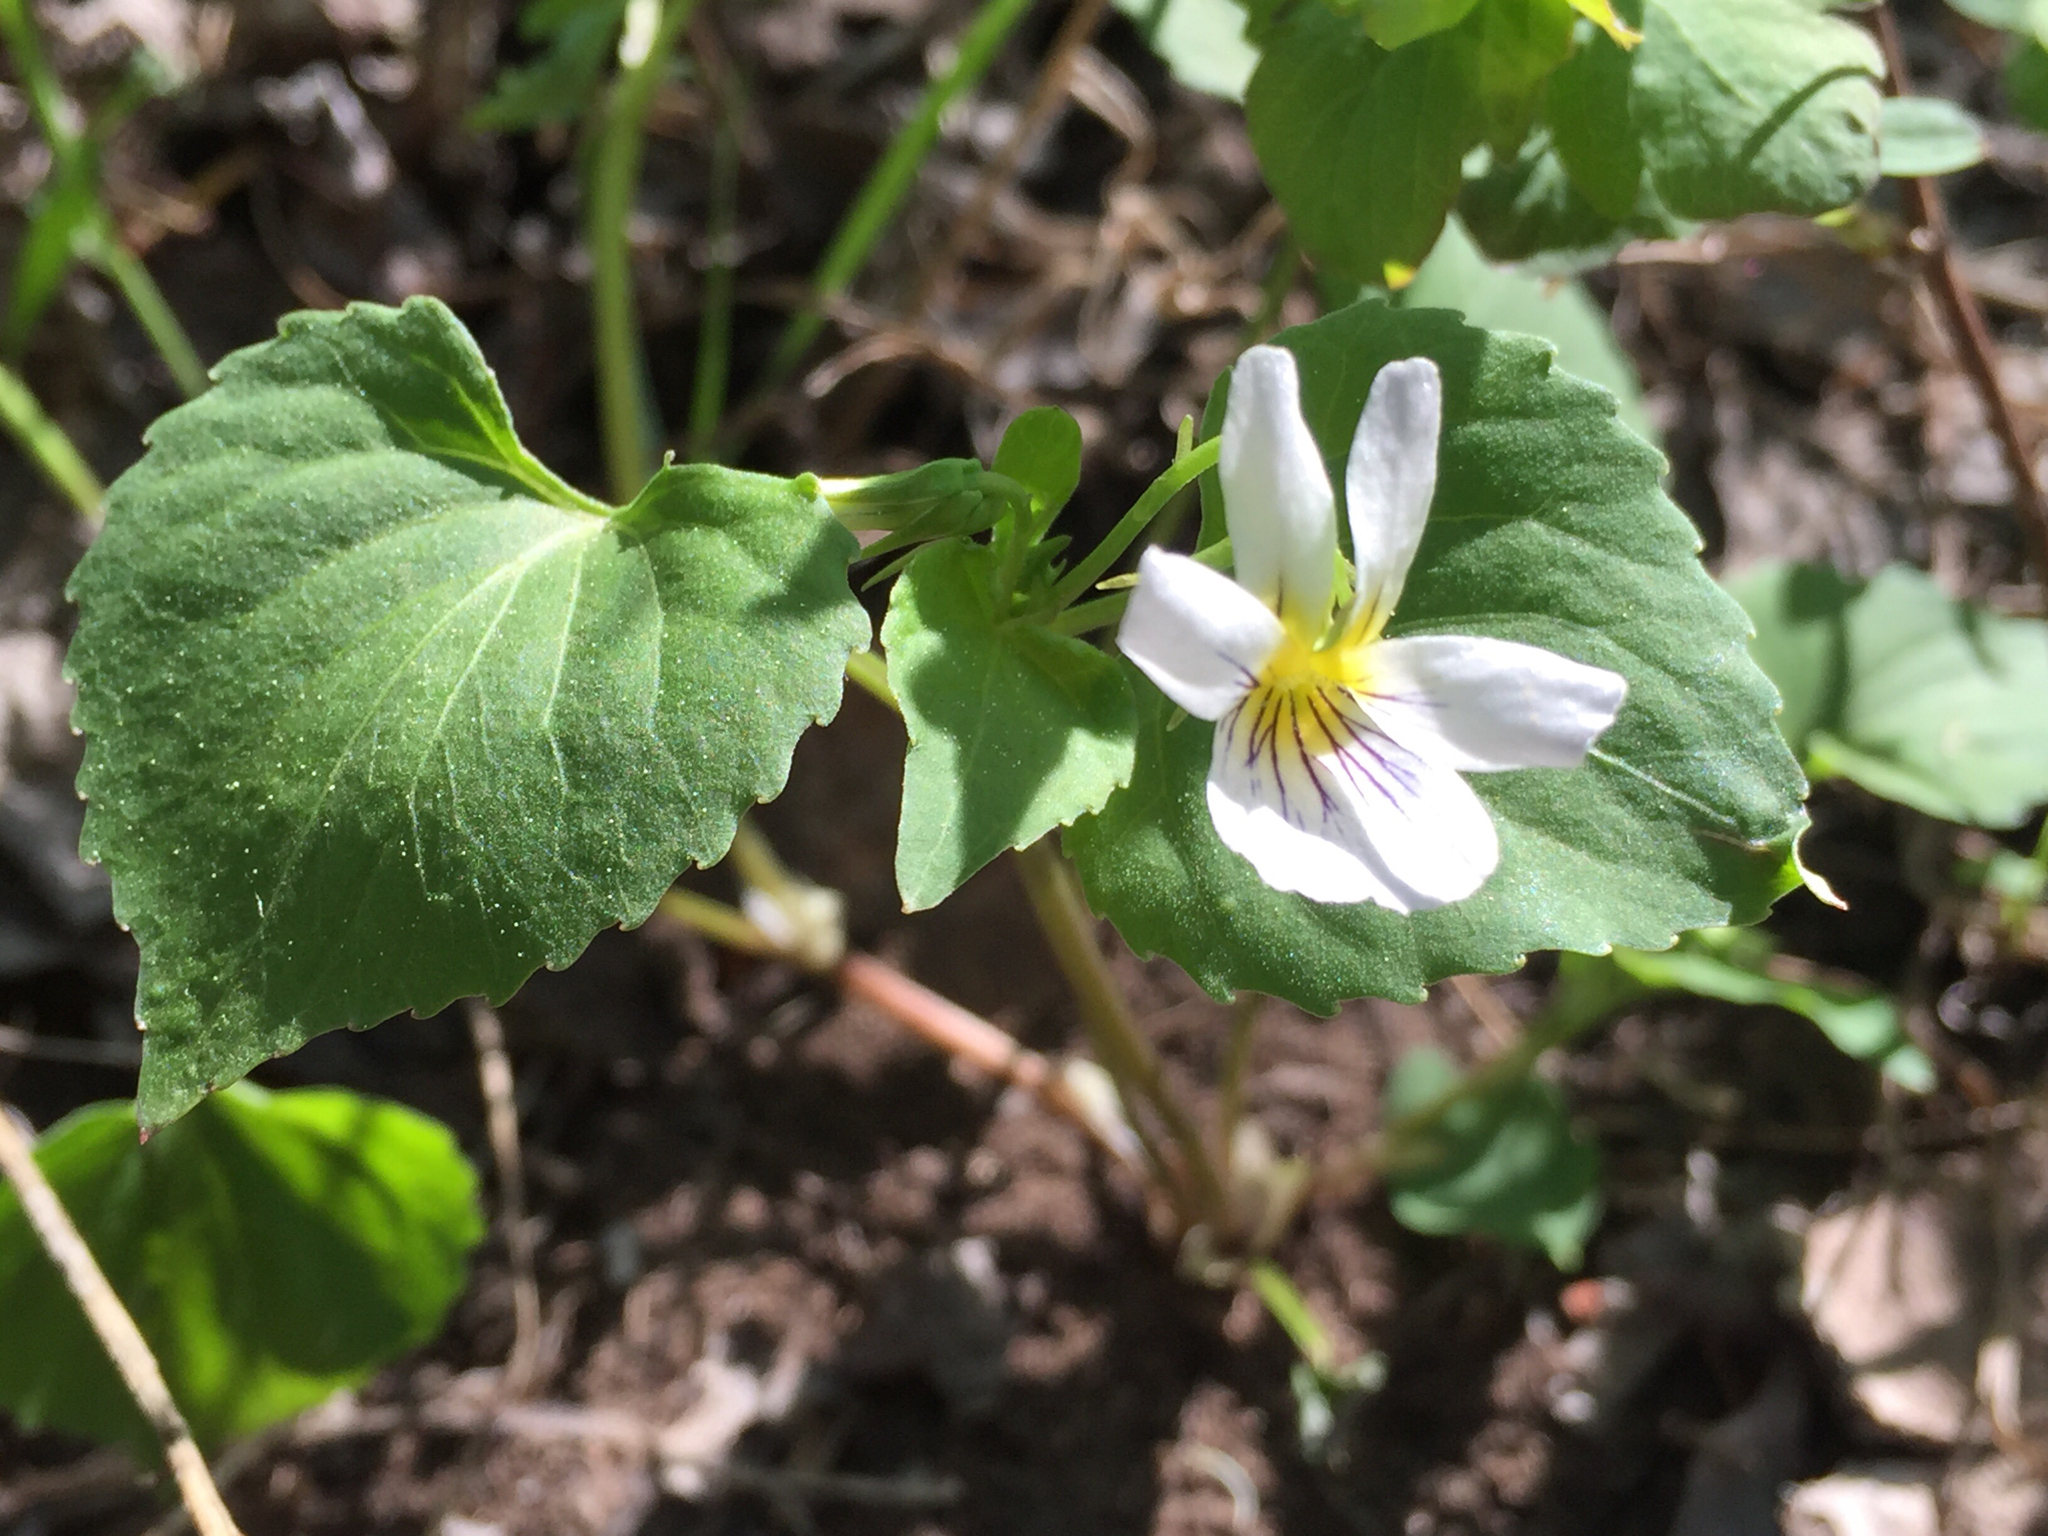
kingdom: Plantae
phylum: Tracheophyta
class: Magnoliopsida
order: Malpighiales
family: Violaceae
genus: Viola
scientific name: Viola canadensis
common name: Canada violet
